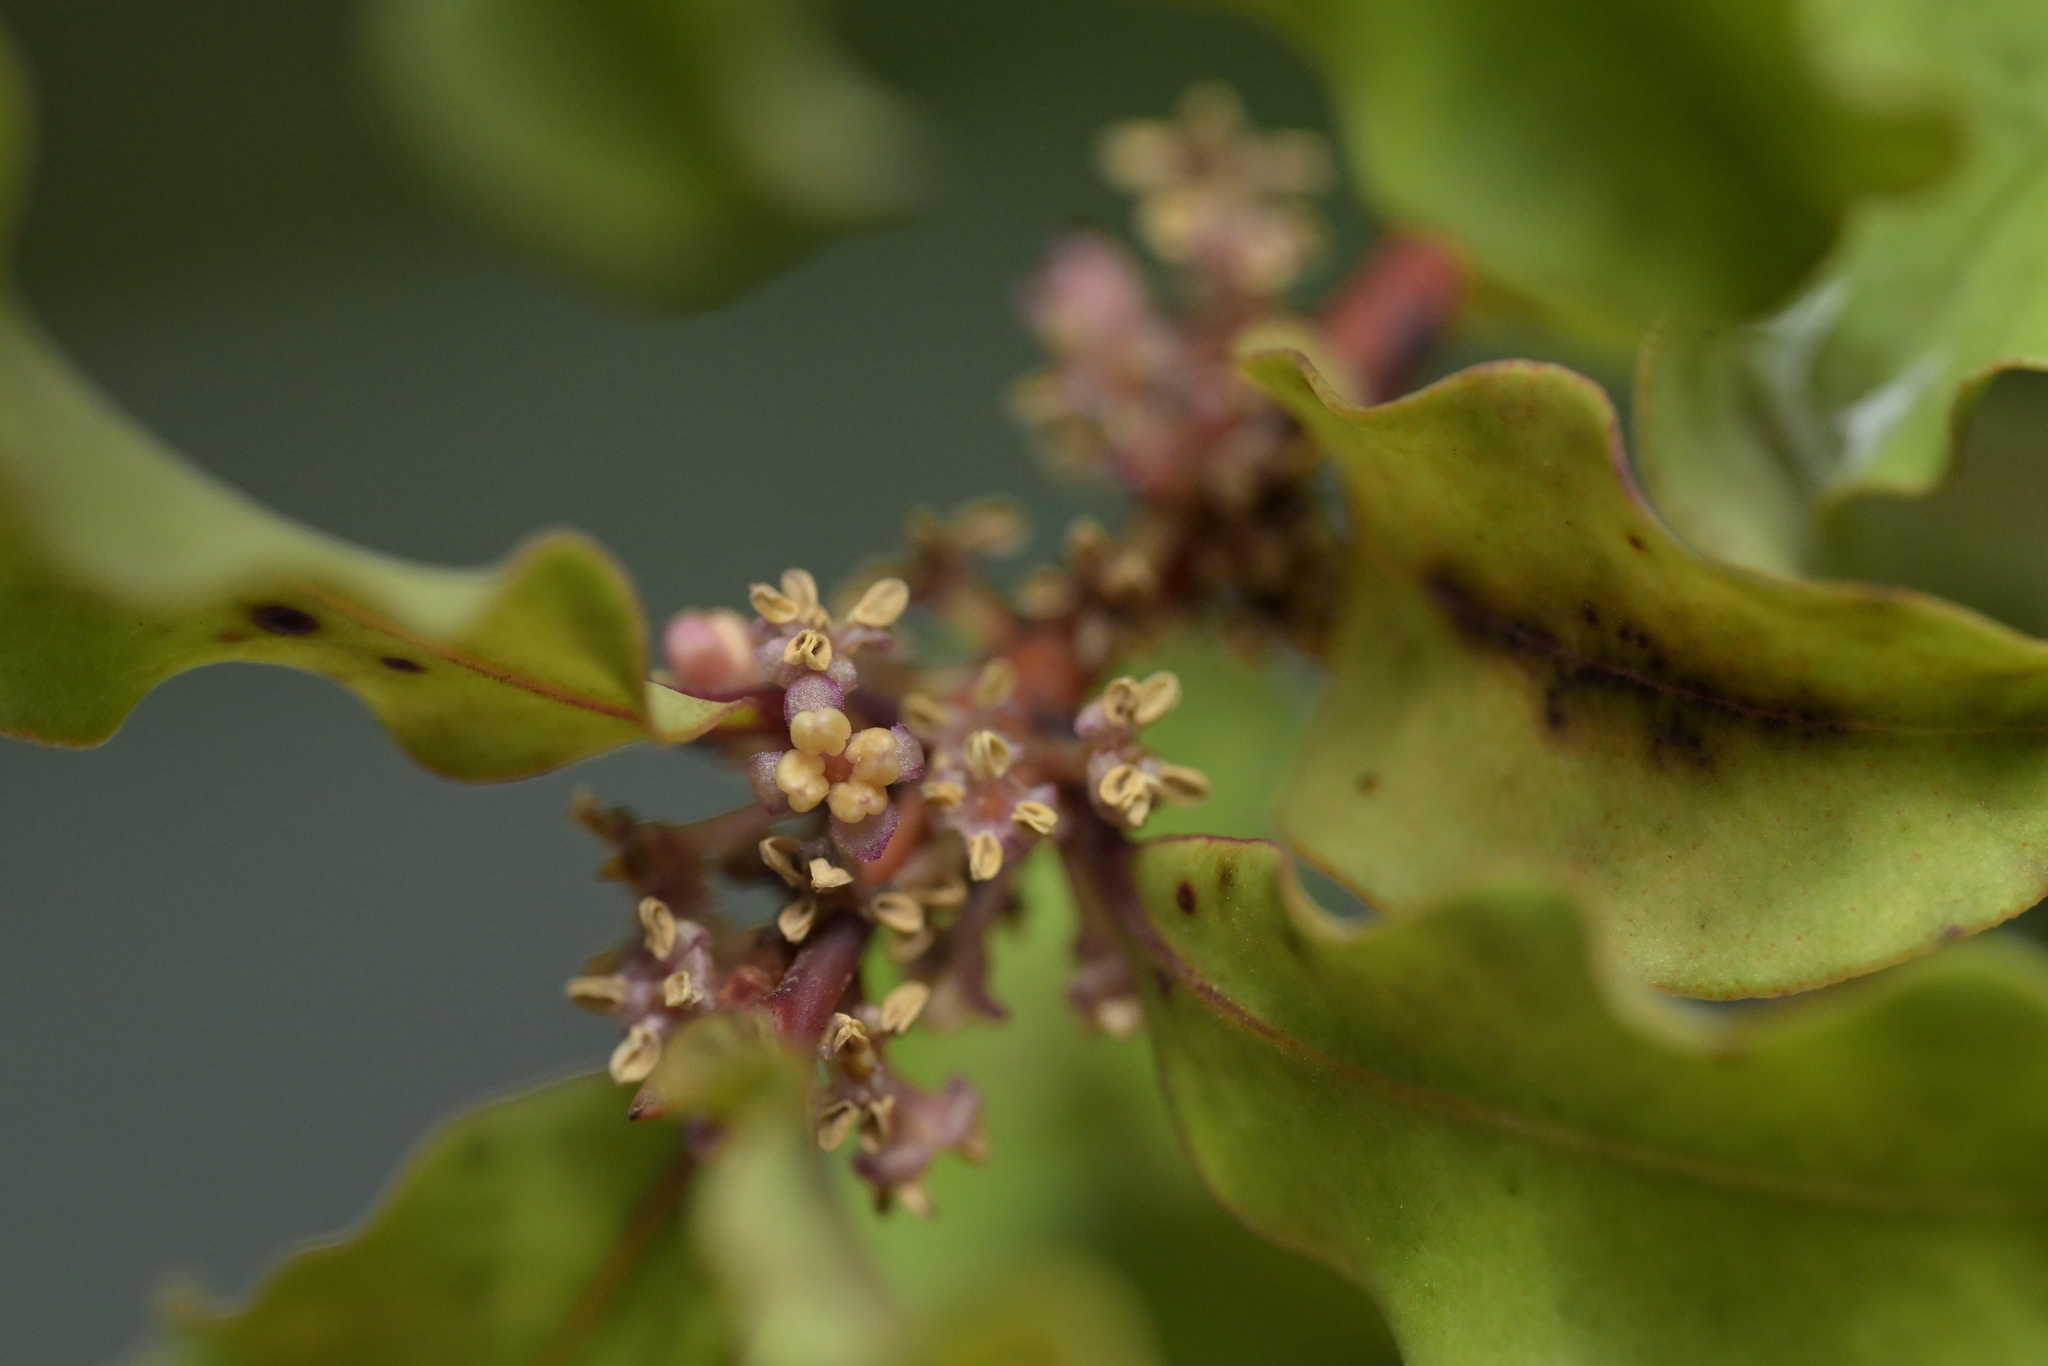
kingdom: Plantae
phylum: Tracheophyta
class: Magnoliopsida
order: Ericales
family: Primulaceae
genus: Myrsine
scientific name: Myrsine australis
